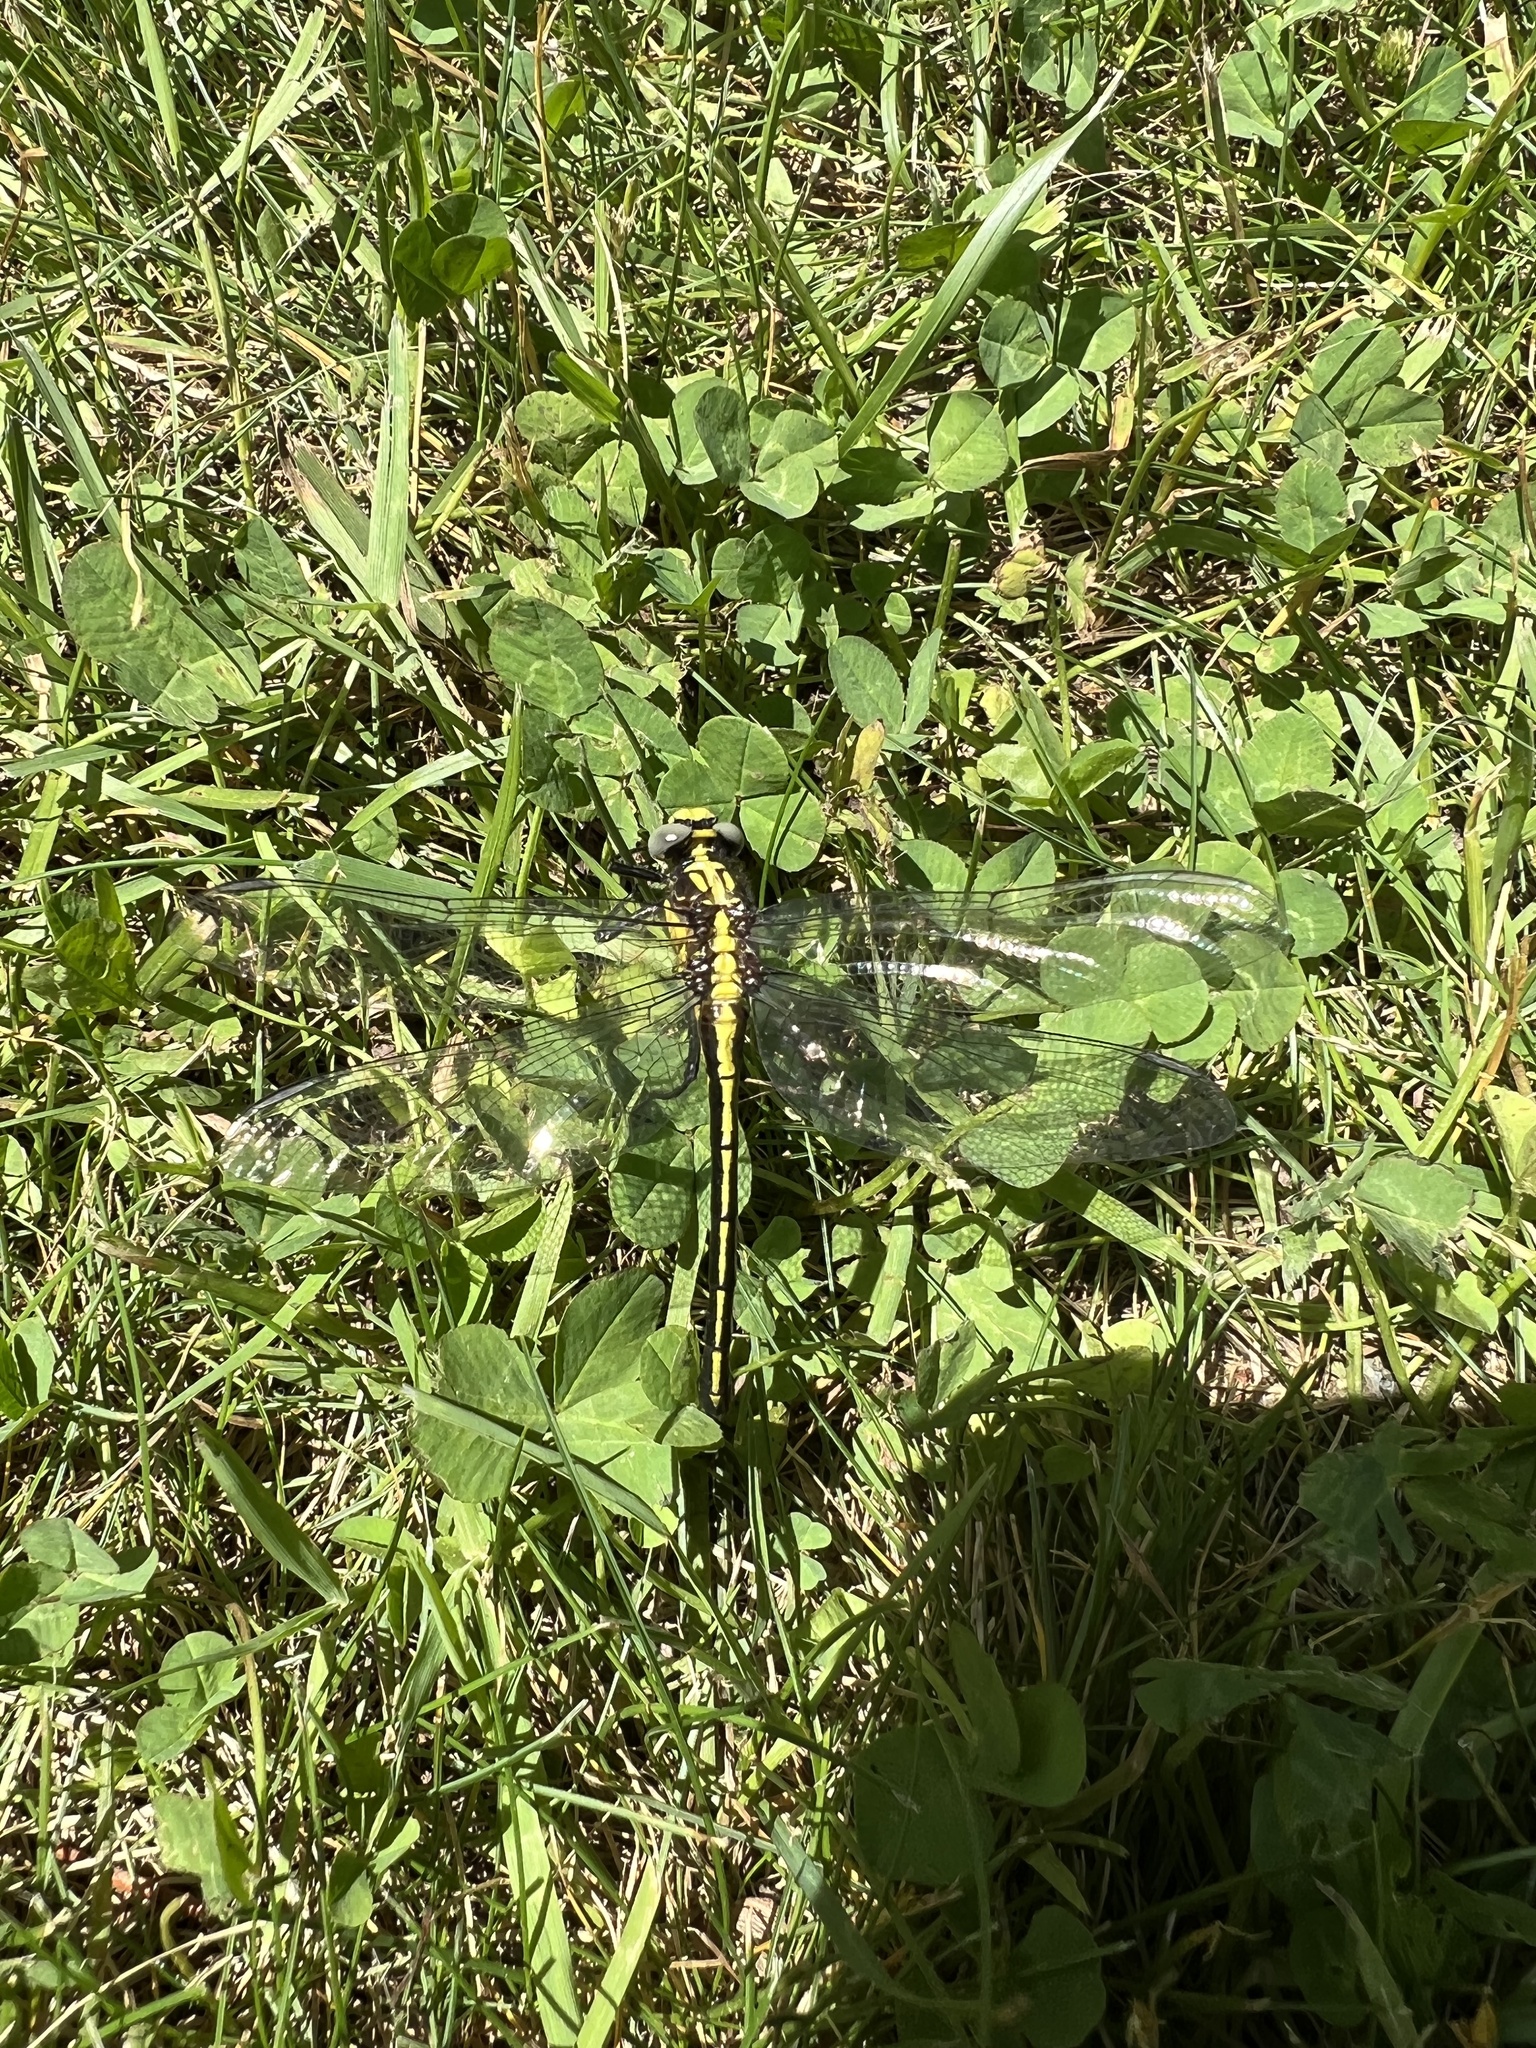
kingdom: Animalia
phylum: Arthropoda
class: Insecta
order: Odonata
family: Gomphidae
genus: Dromogomphus
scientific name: Dromogomphus spinosus
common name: Black-shouldered spinyleg
